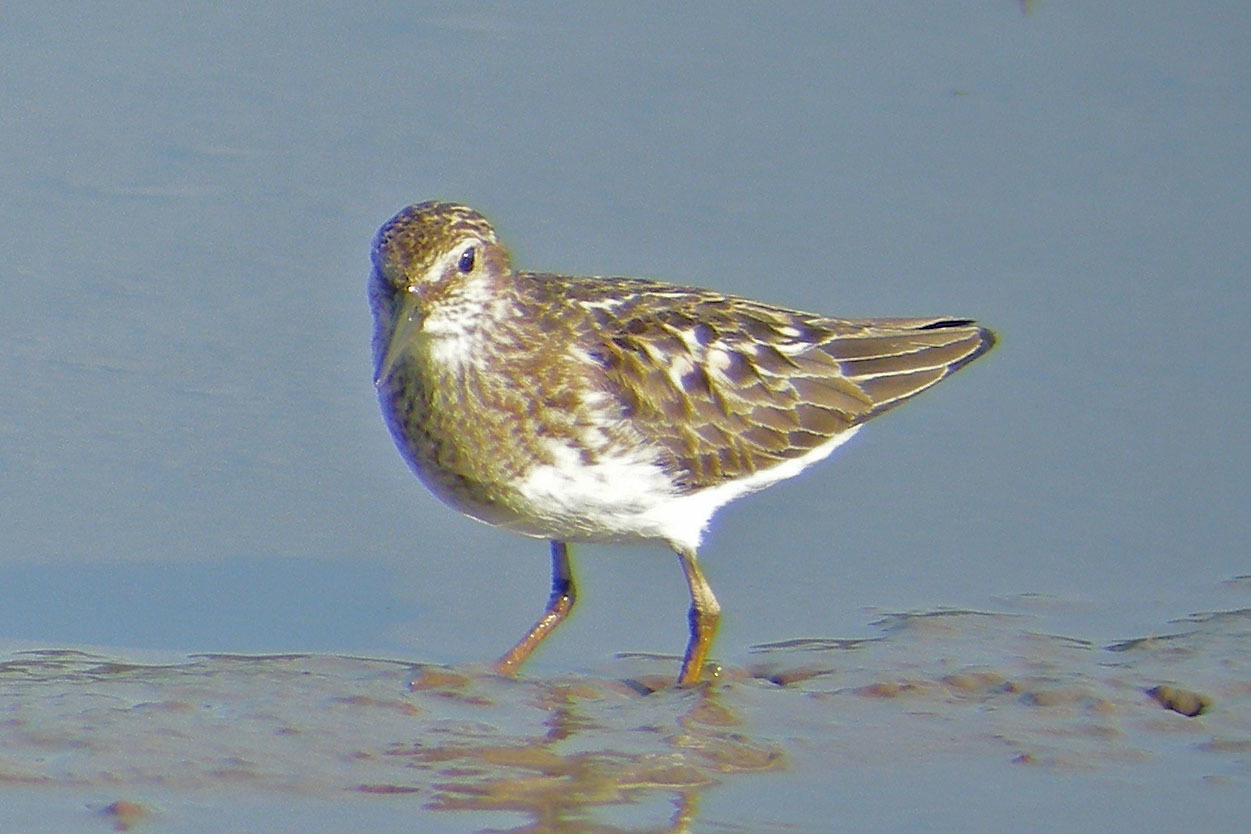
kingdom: Animalia
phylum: Chordata
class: Aves
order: Charadriiformes
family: Scolopacidae
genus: Calidris
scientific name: Calidris minutilla
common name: Least sandpiper
